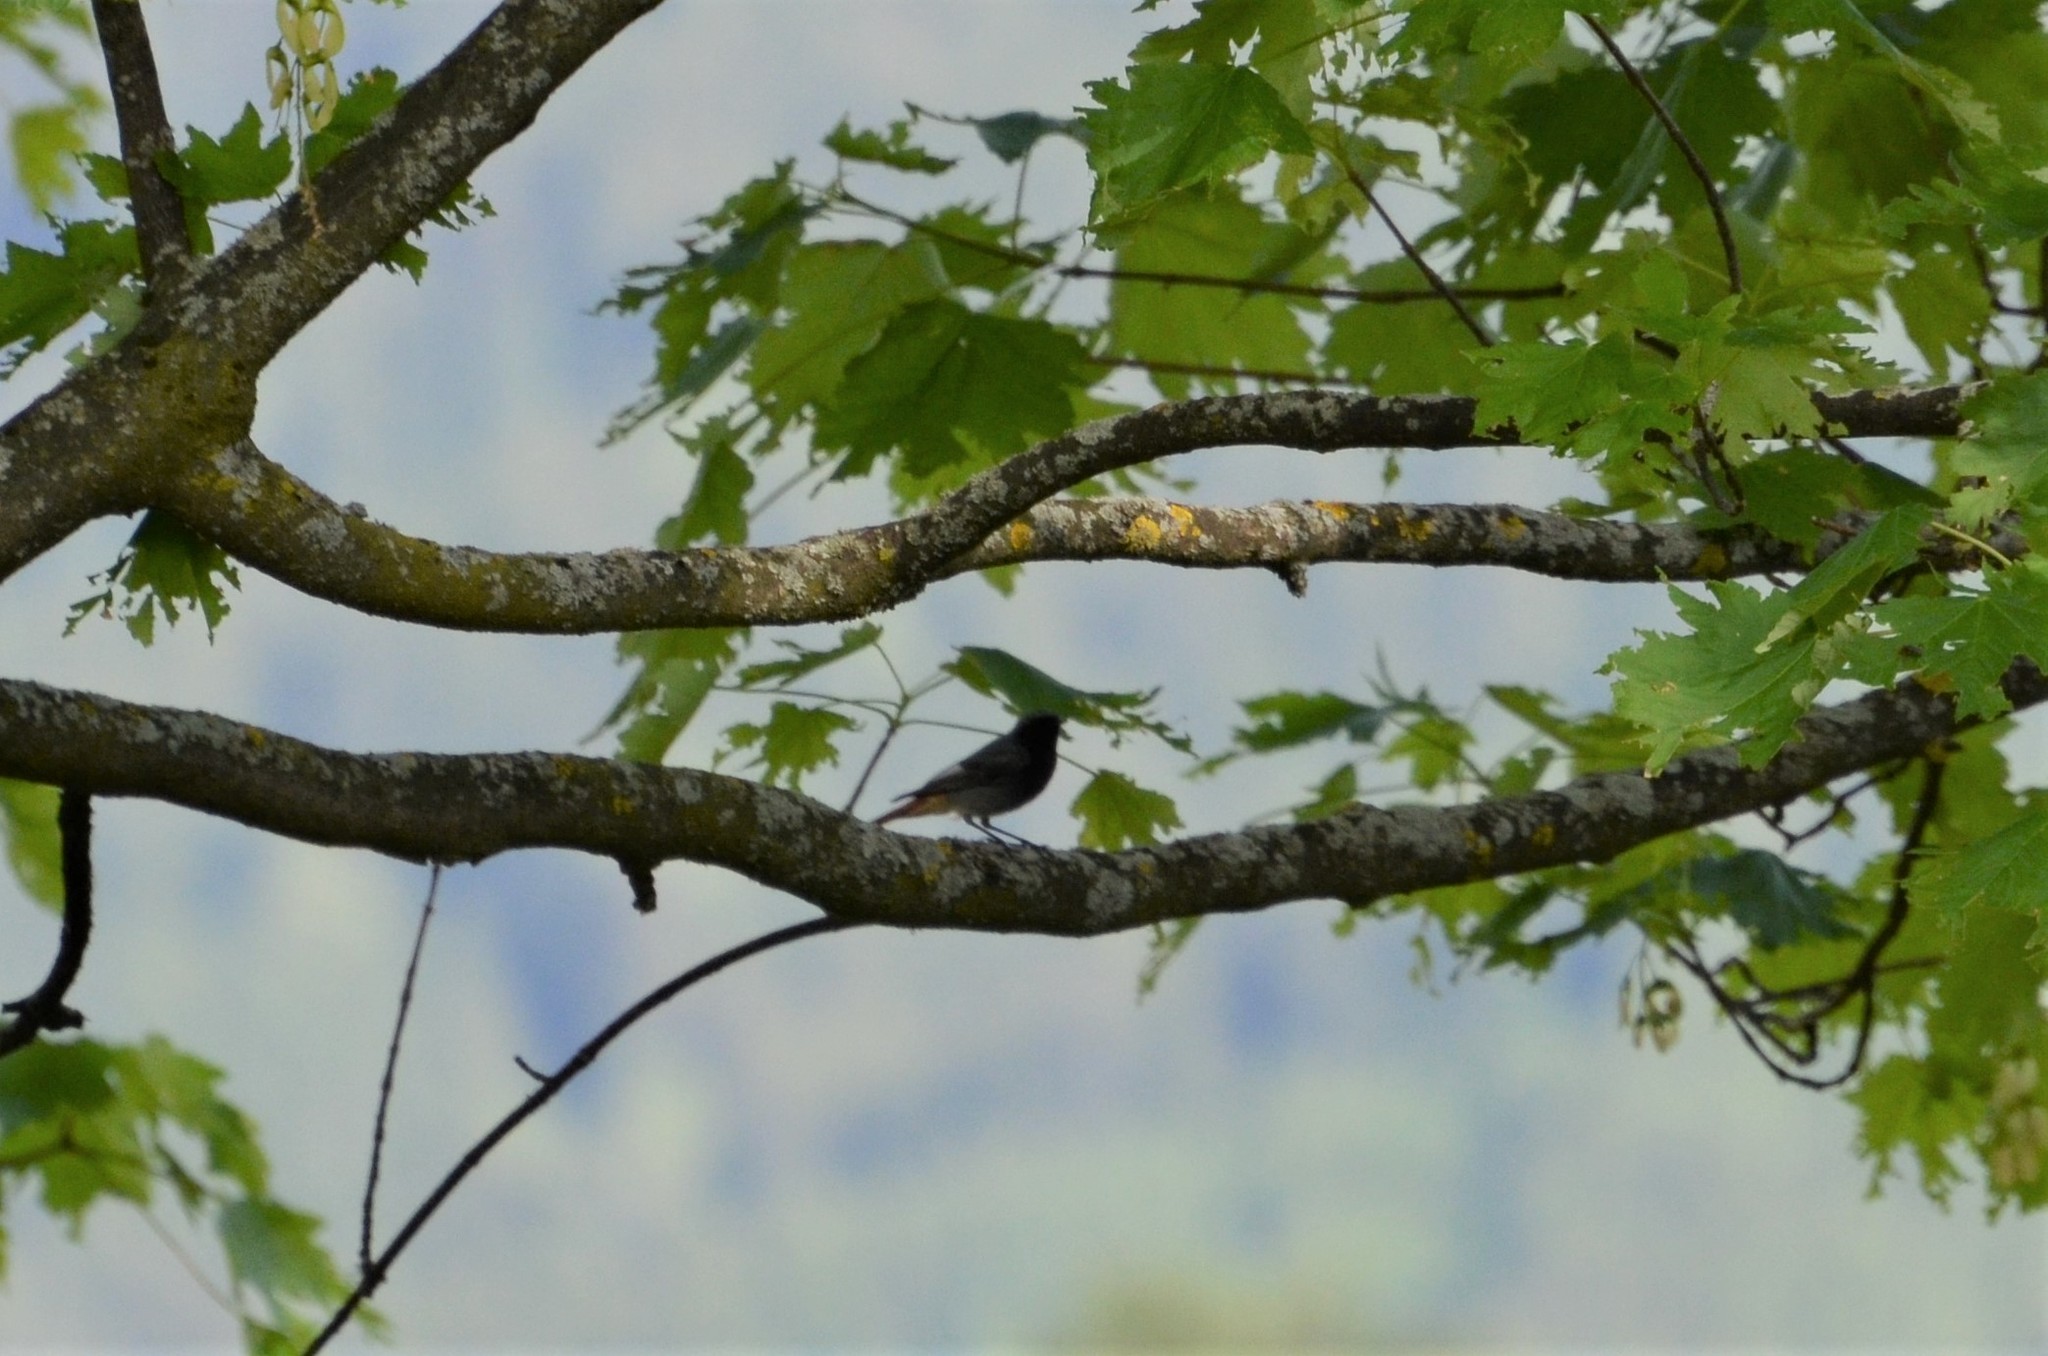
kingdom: Animalia
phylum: Chordata
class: Aves
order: Passeriformes
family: Muscicapidae
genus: Phoenicurus
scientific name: Phoenicurus ochruros
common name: Black redstart
